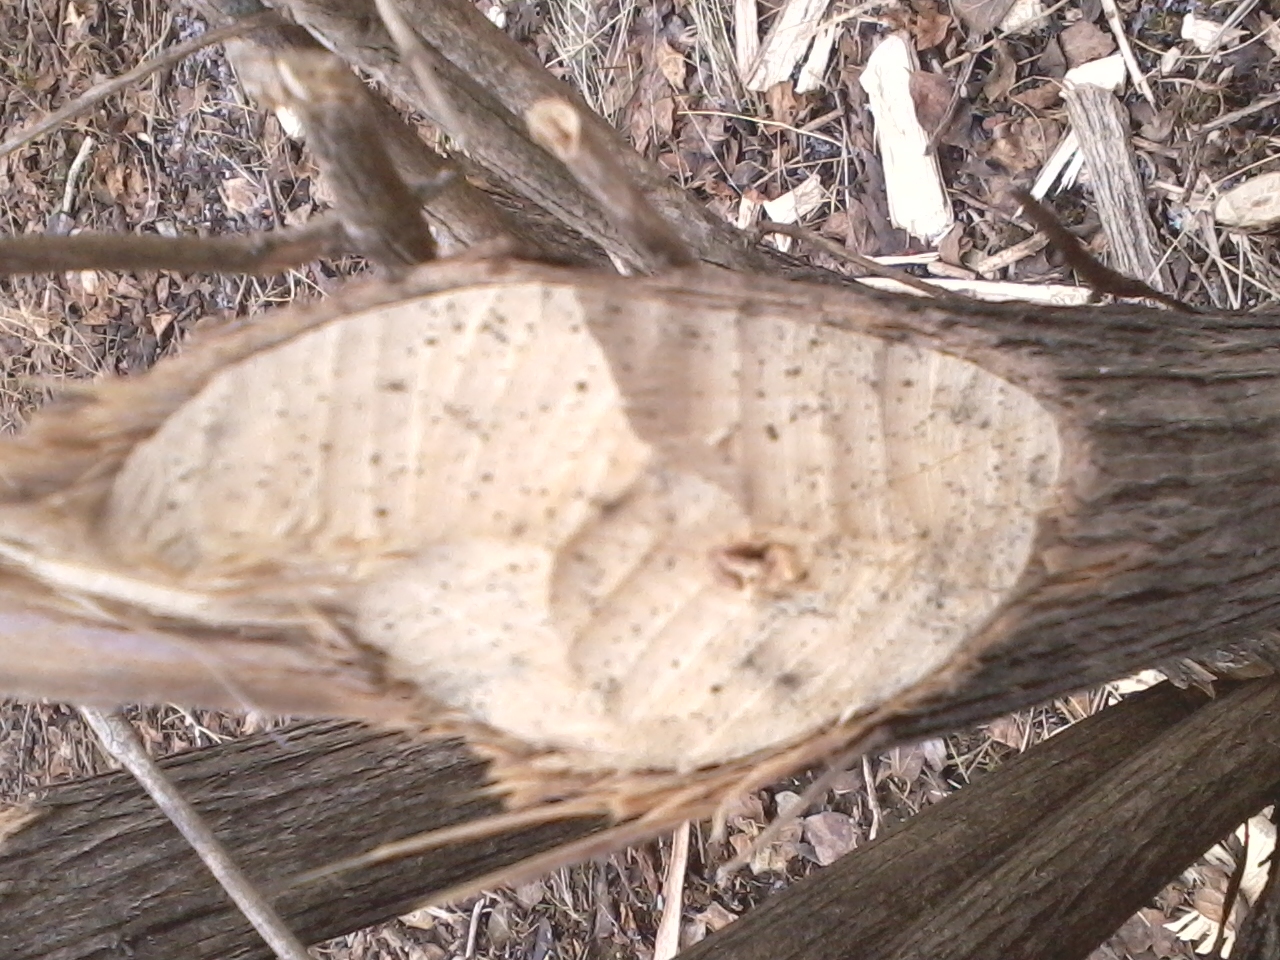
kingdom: Animalia
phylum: Chordata
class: Mammalia
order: Rodentia
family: Castoridae
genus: Castor
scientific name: Castor canadensis
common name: American beaver
